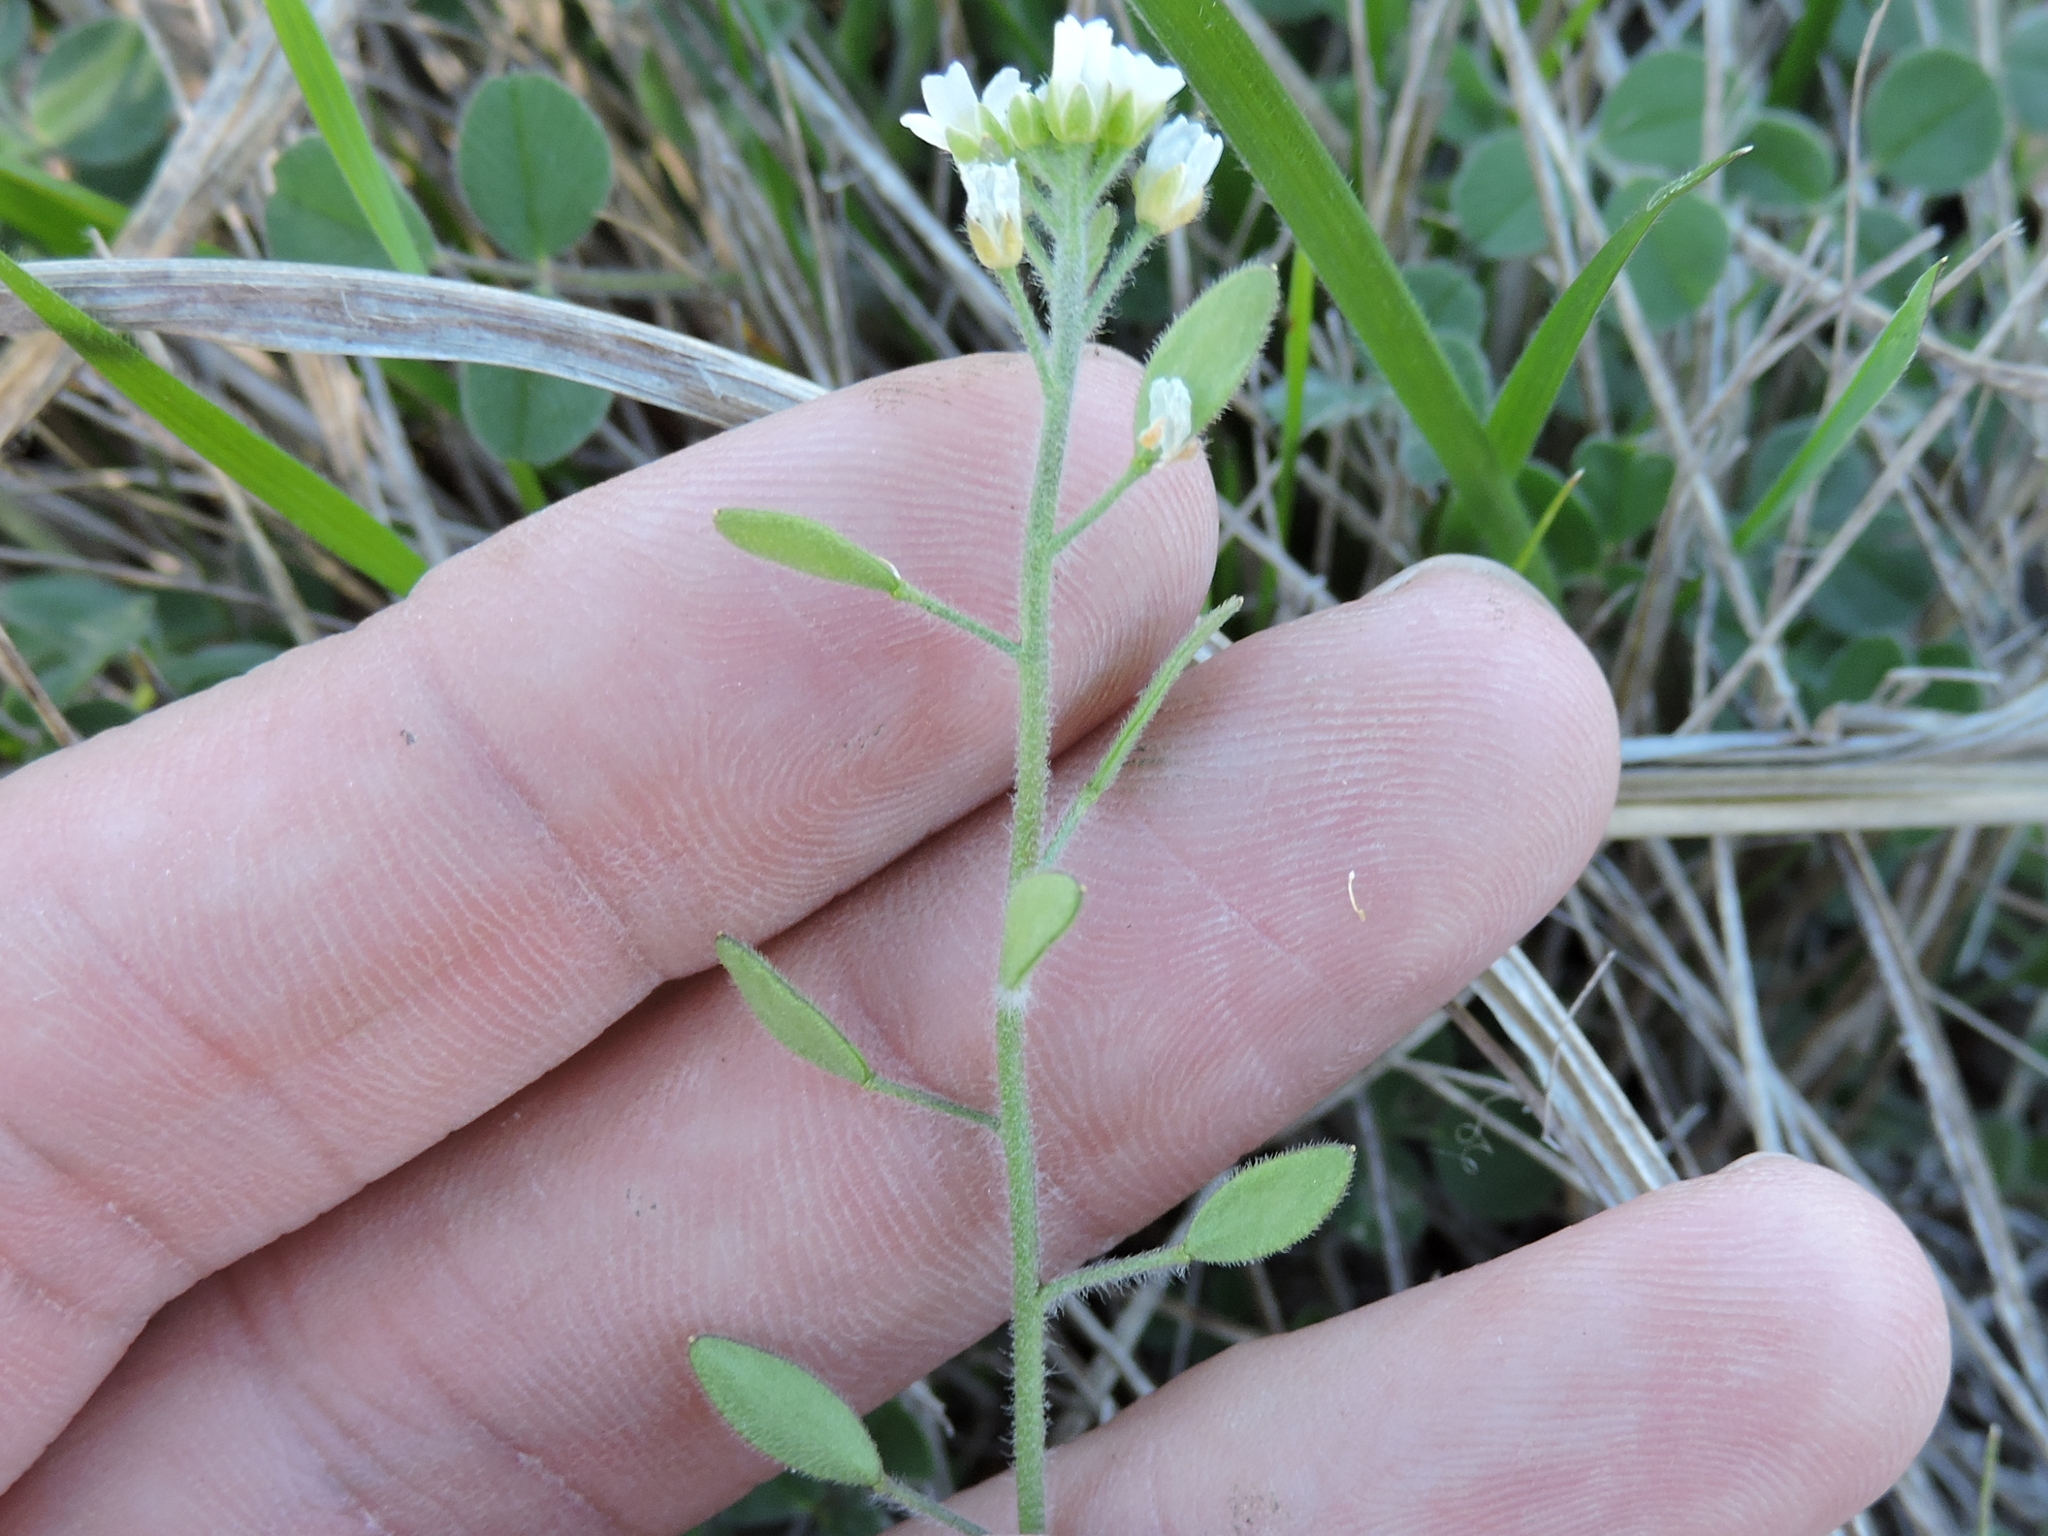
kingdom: Plantae
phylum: Tracheophyta
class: Magnoliopsida
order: Brassicales
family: Brassicaceae
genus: Tomostima
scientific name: Tomostima platycarpa
